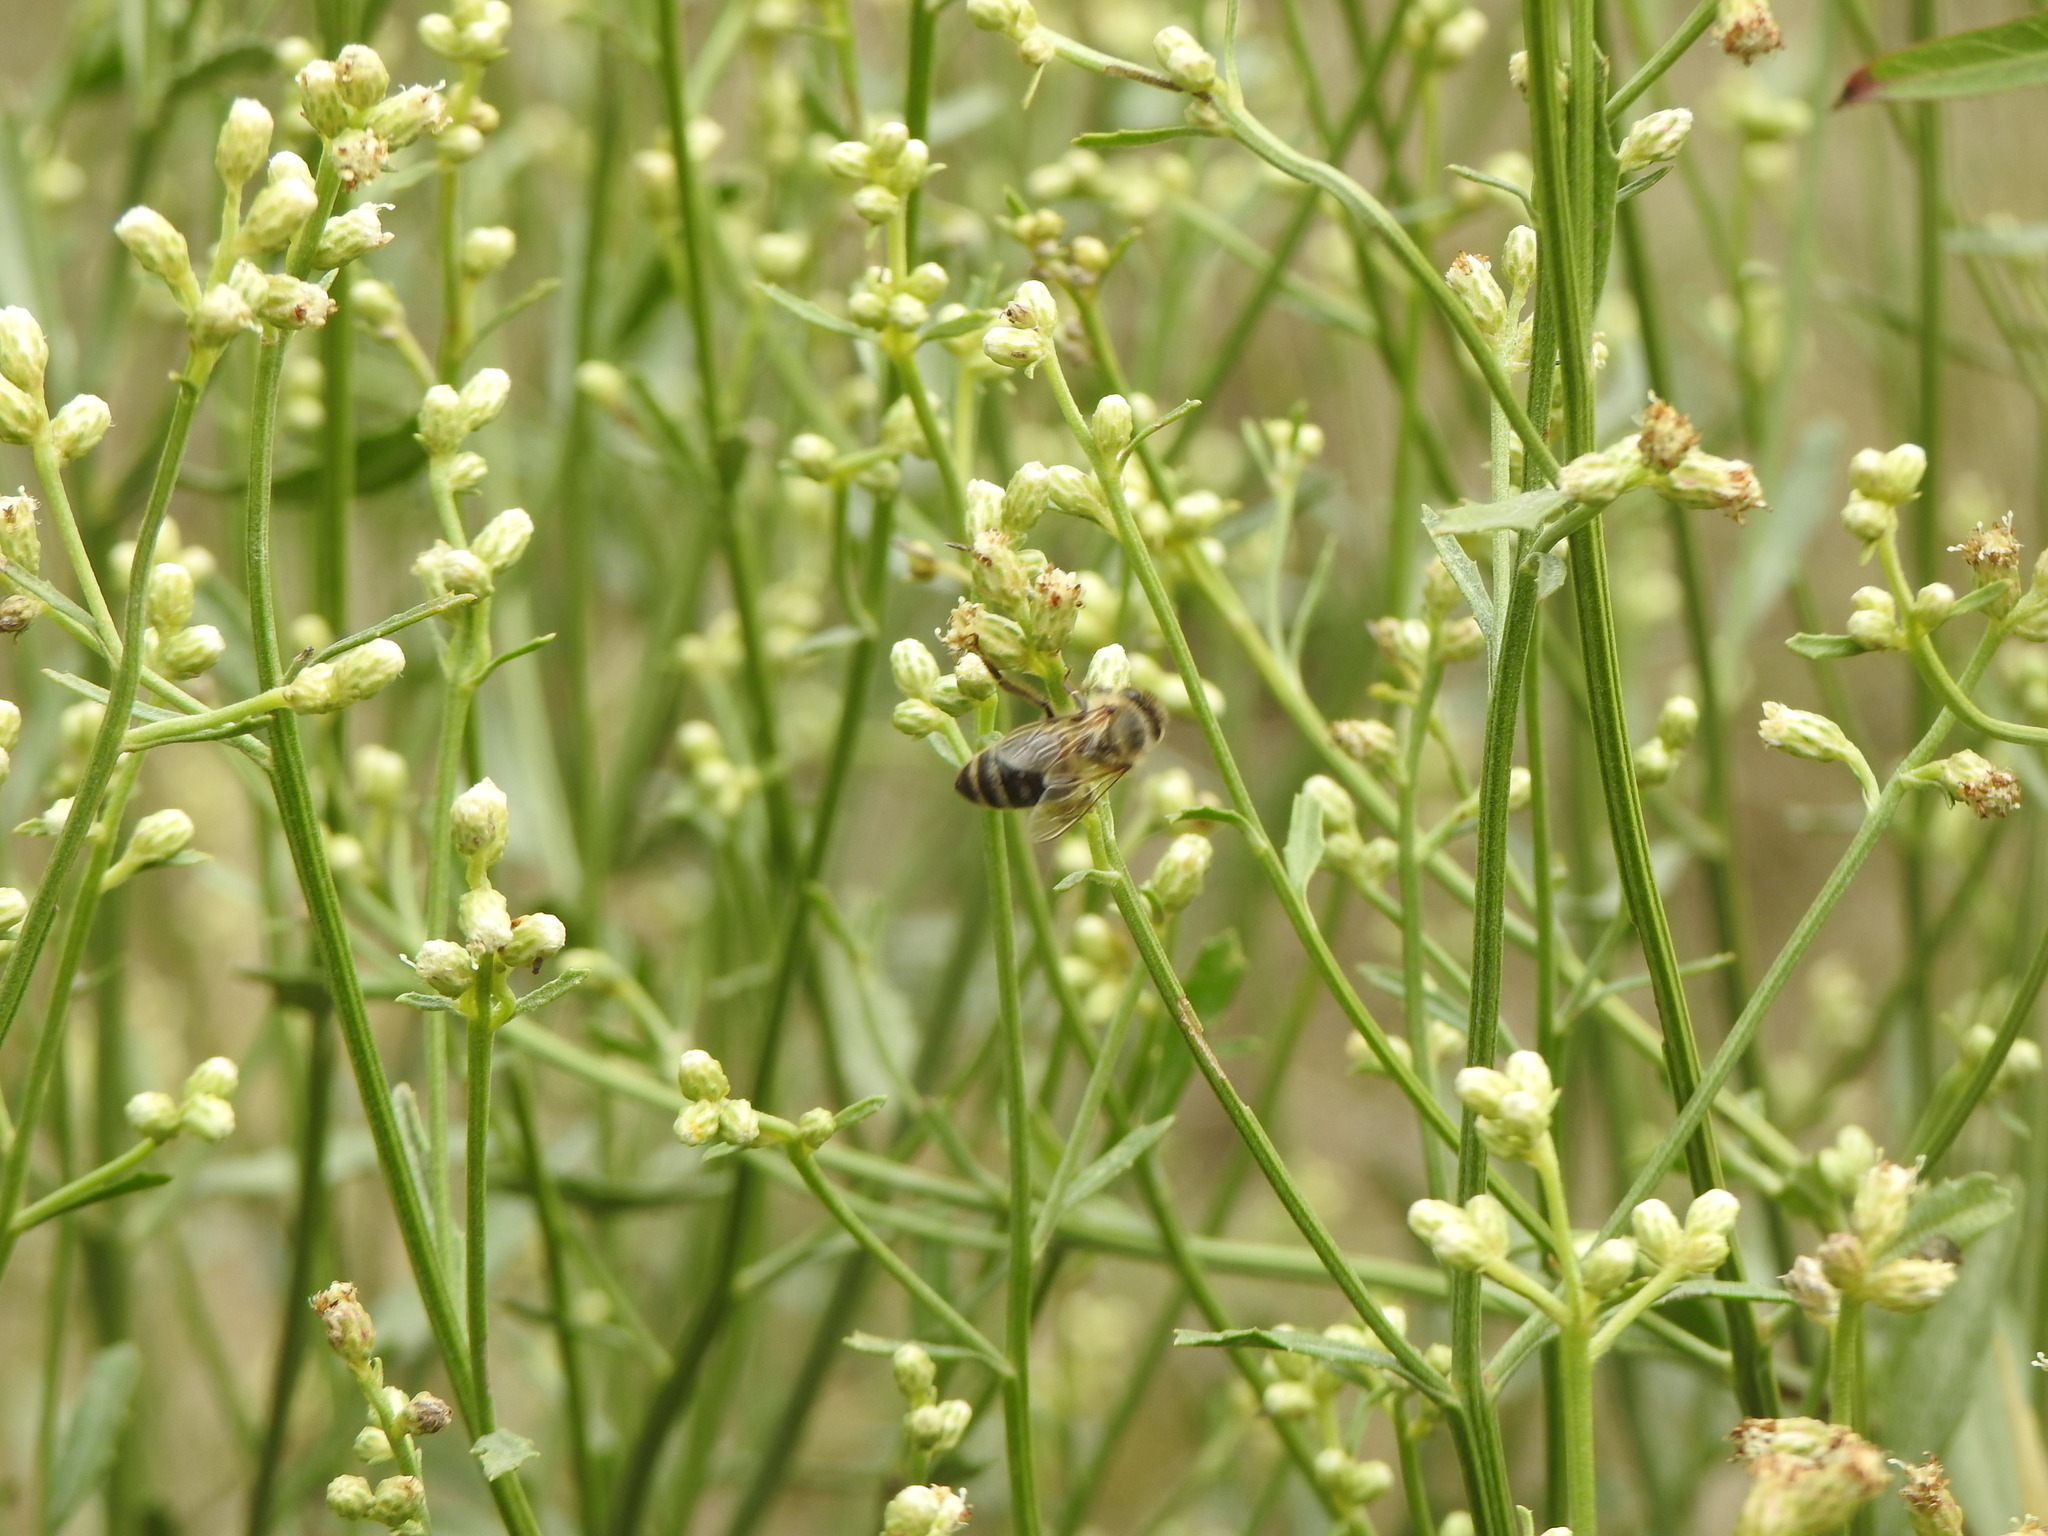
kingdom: Animalia
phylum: Arthropoda
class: Insecta
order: Hymenoptera
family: Apidae
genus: Apis
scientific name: Apis mellifera
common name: Honey bee
